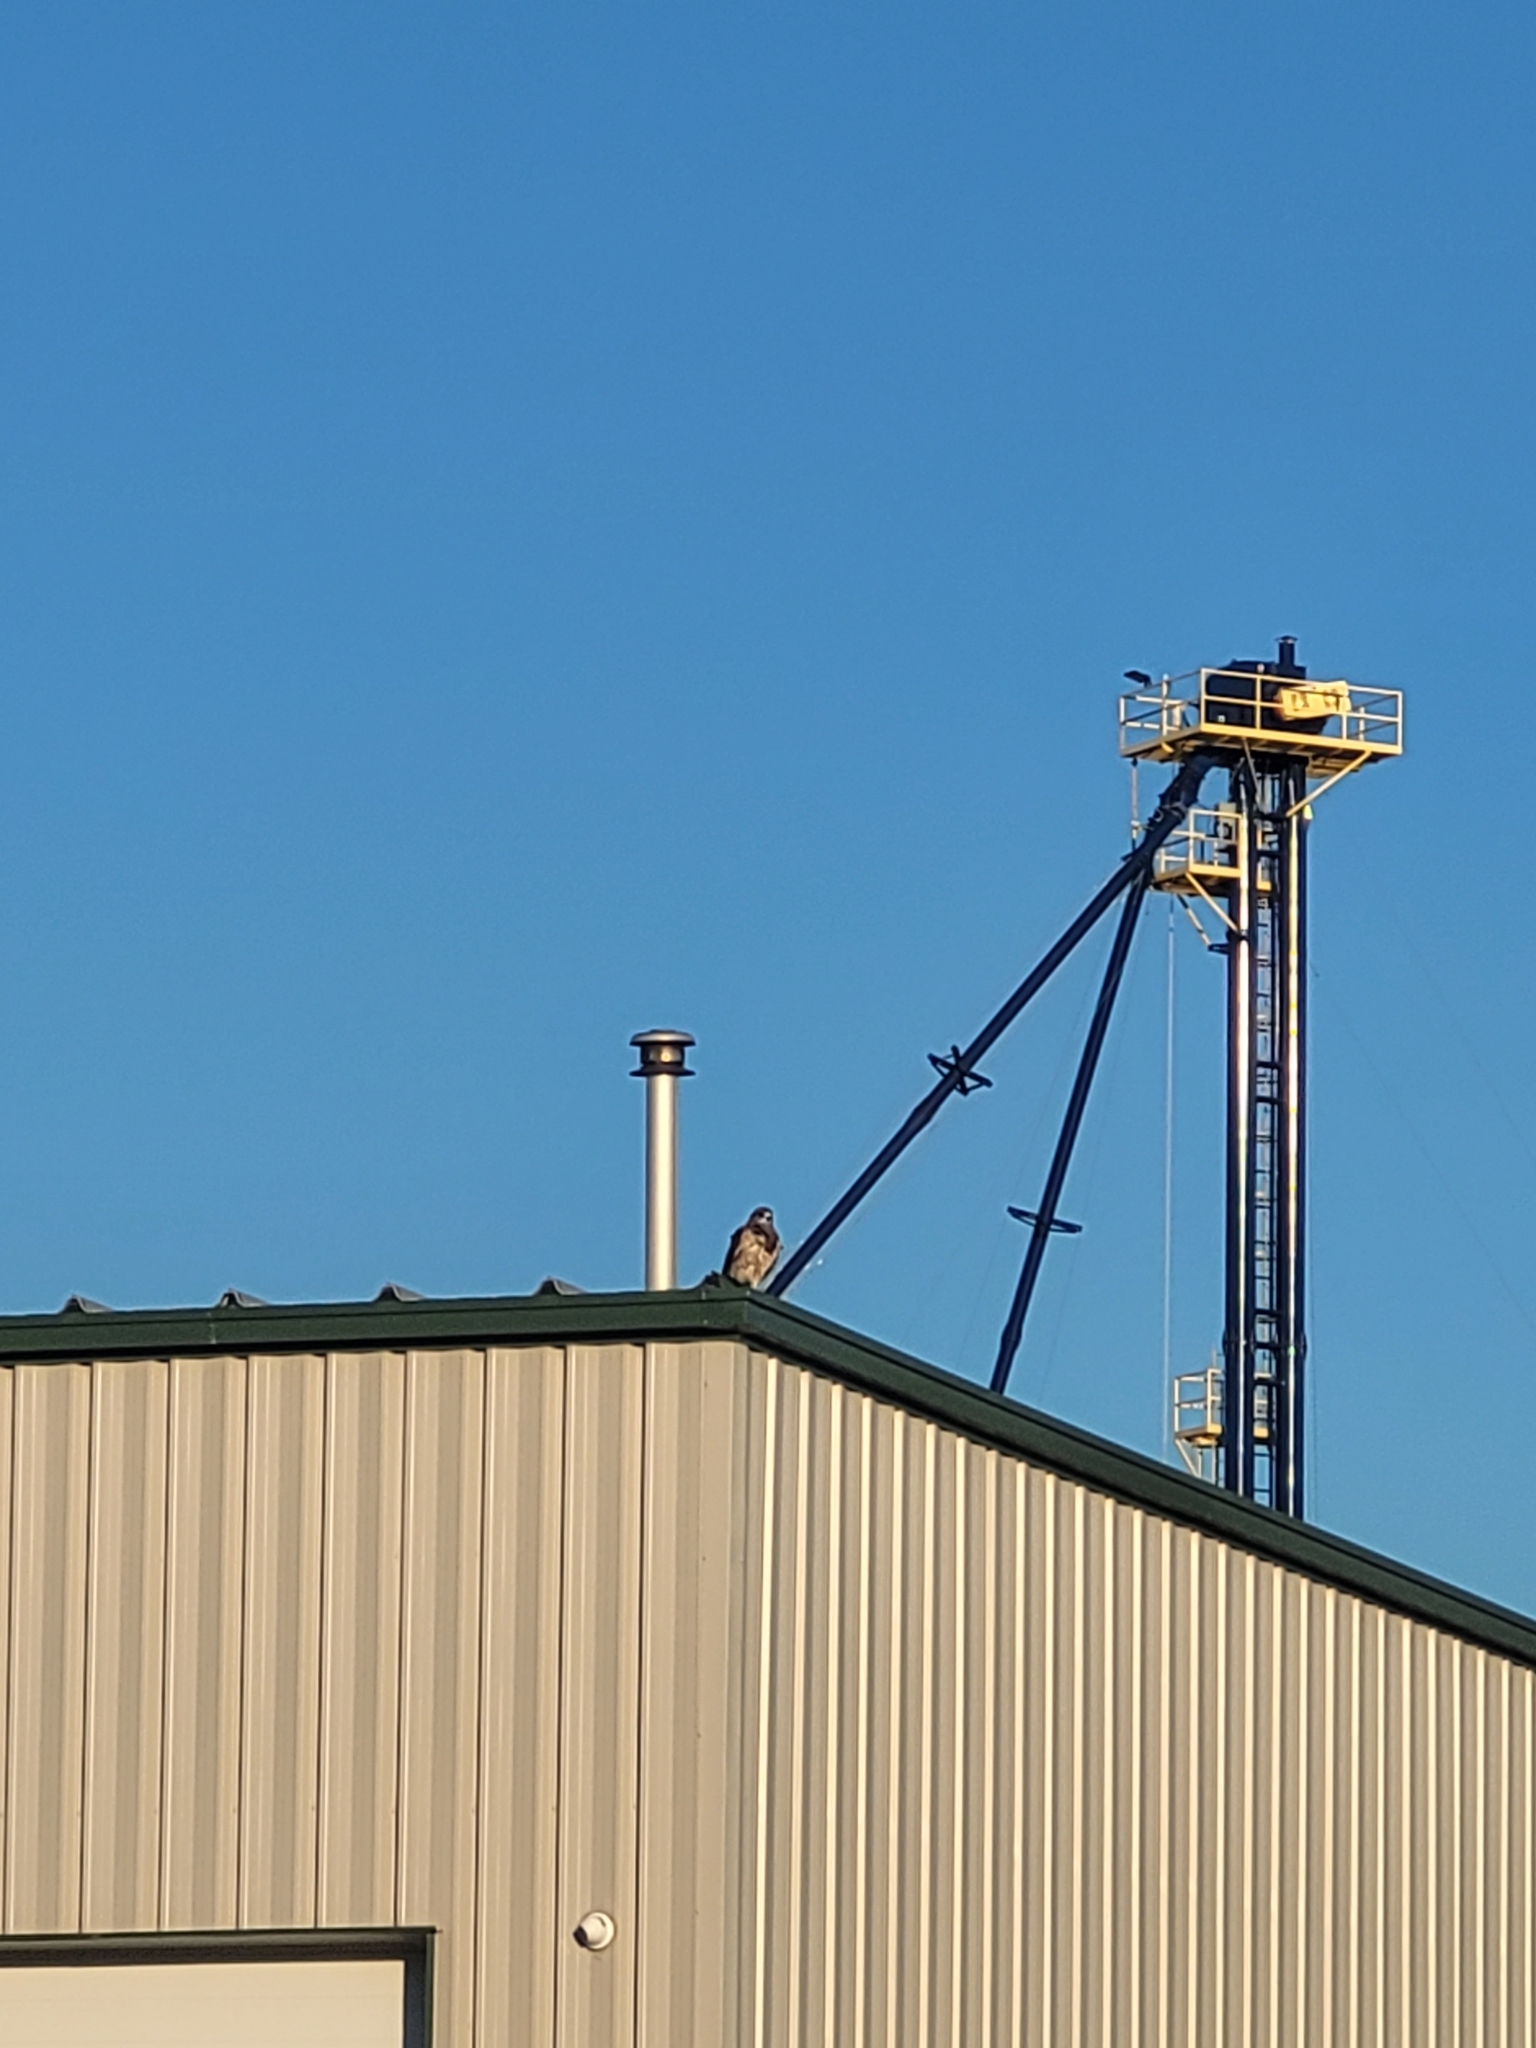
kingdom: Animalia
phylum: Chordata
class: Aves
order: Accipitriformes
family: Accipitridae
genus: Buteo
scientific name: Buteo swainsoni
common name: Swainson's hawk
